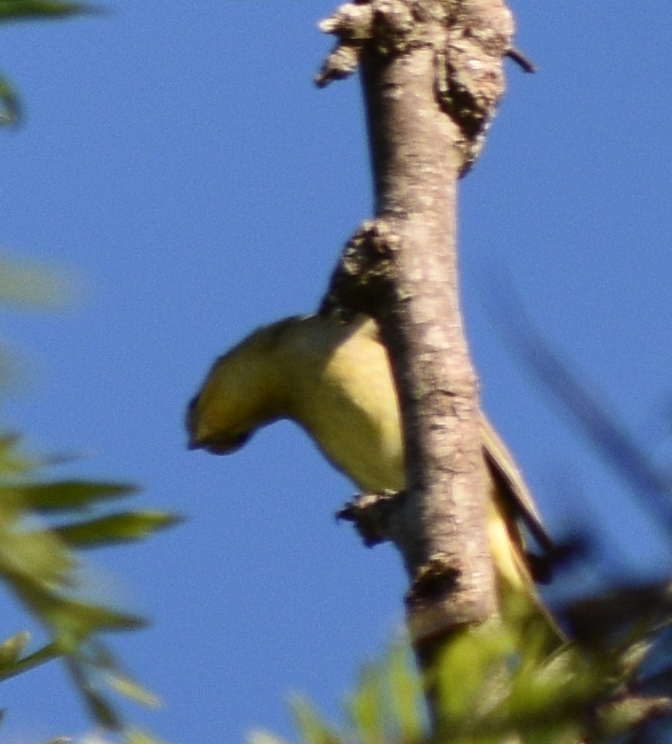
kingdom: Animalia
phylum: Chordata
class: Aves
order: Passeriformes
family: Cardinalidae
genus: Piranga
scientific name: Piranga ludoviciana
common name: Western tanager
